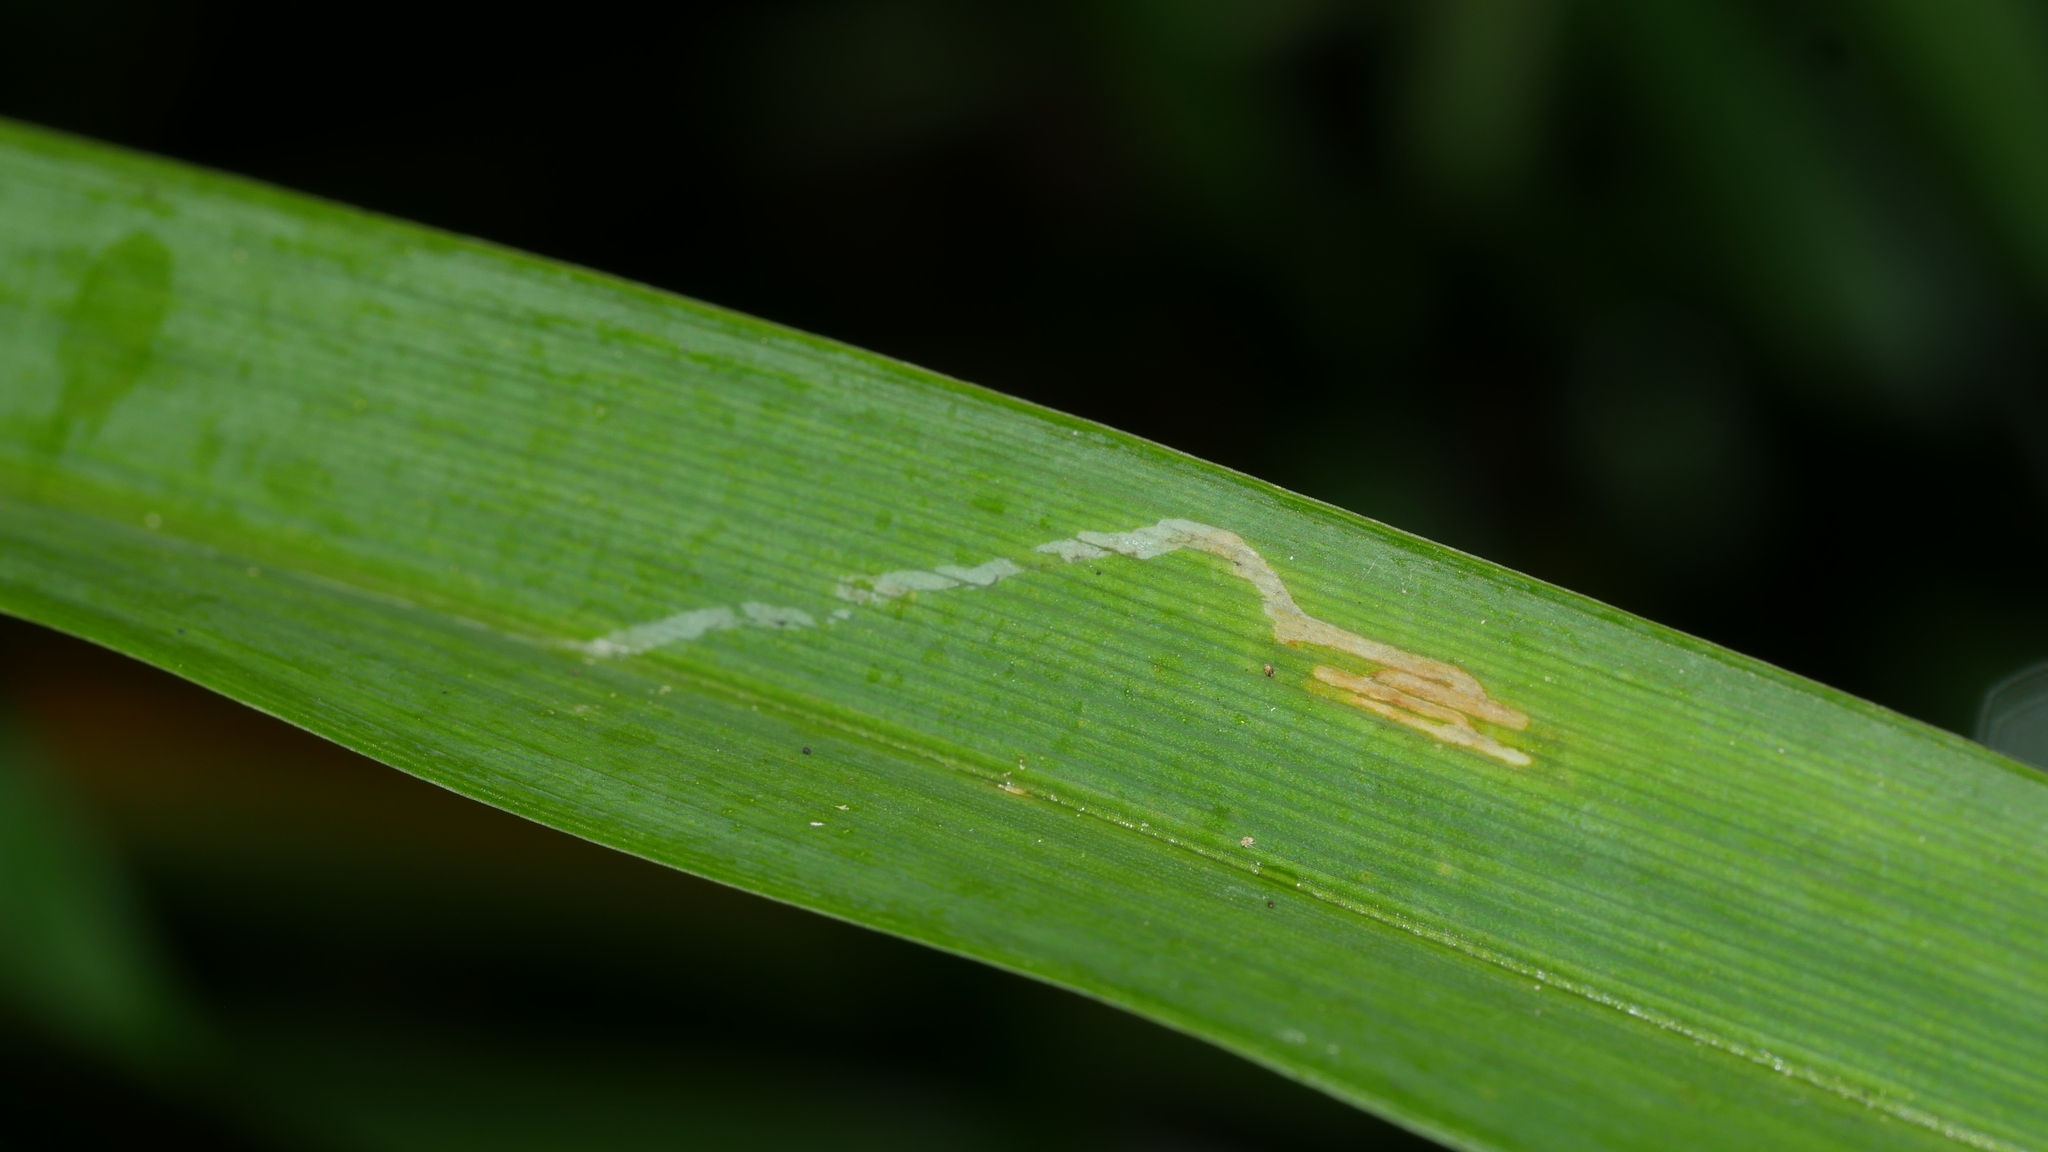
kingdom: Animalia
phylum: Arthropoda
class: Insecta
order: Diptera
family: Agromyzidae
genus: Ophiomyia
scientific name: Ophiomyia kwansonis
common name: Daylily leafminer
